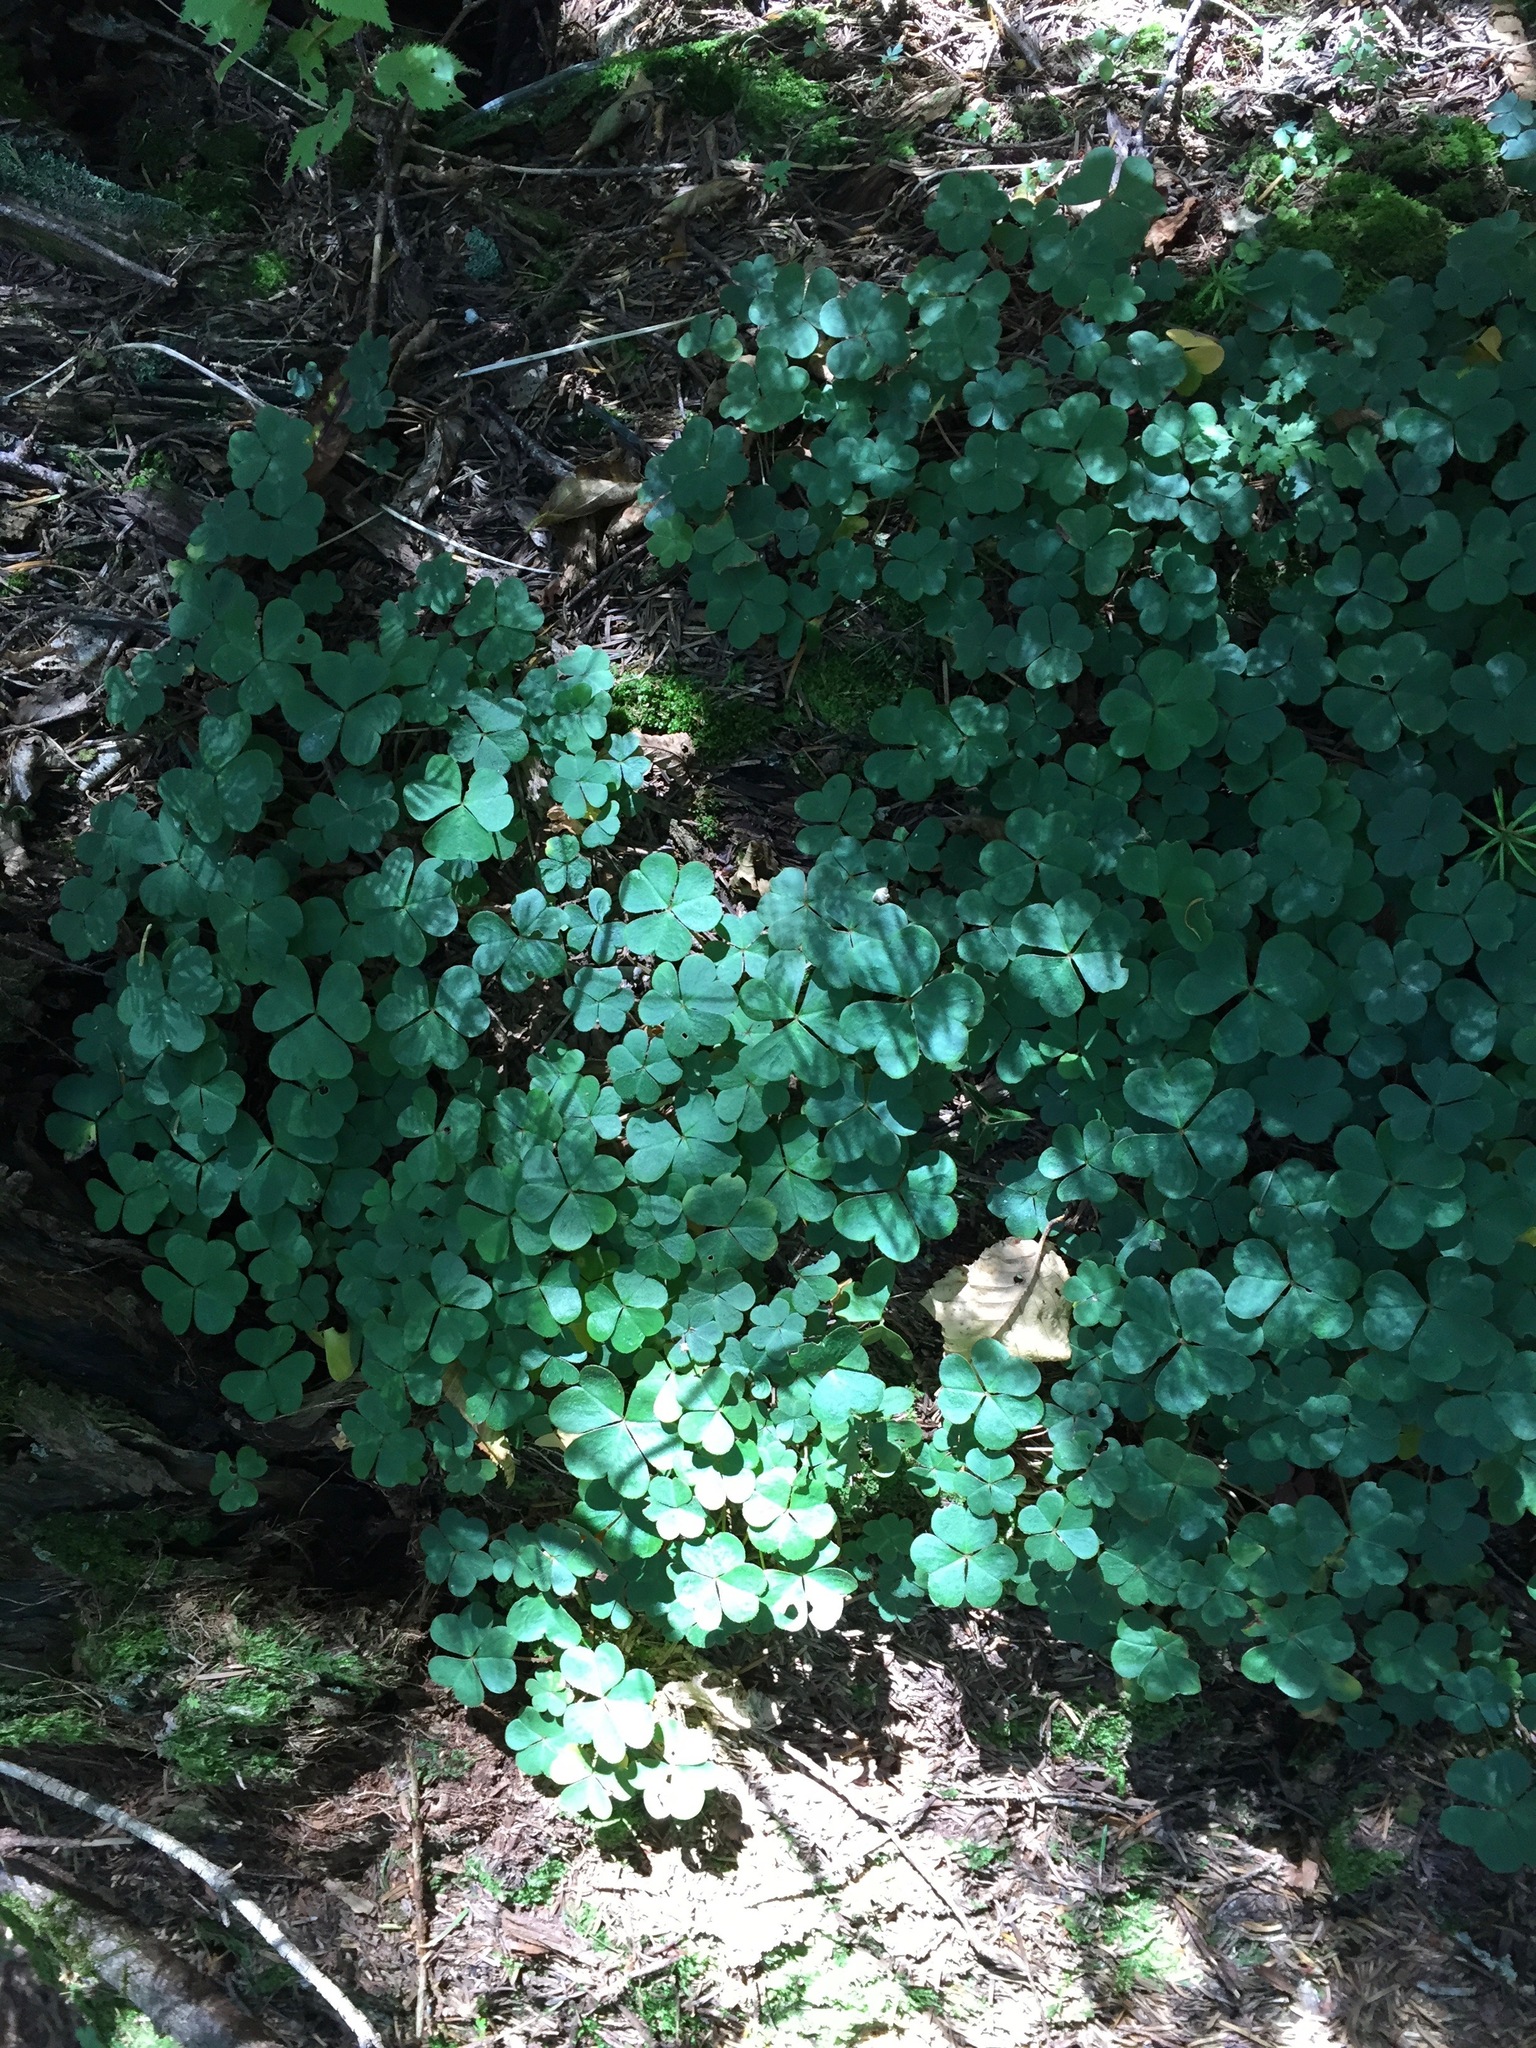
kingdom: Plantae
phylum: Tracheophyta
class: Magnoliopsida
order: Oxalidales
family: Oxalidaceae
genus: Oxalis
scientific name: Oxalis montana
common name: American wood-sorrel
